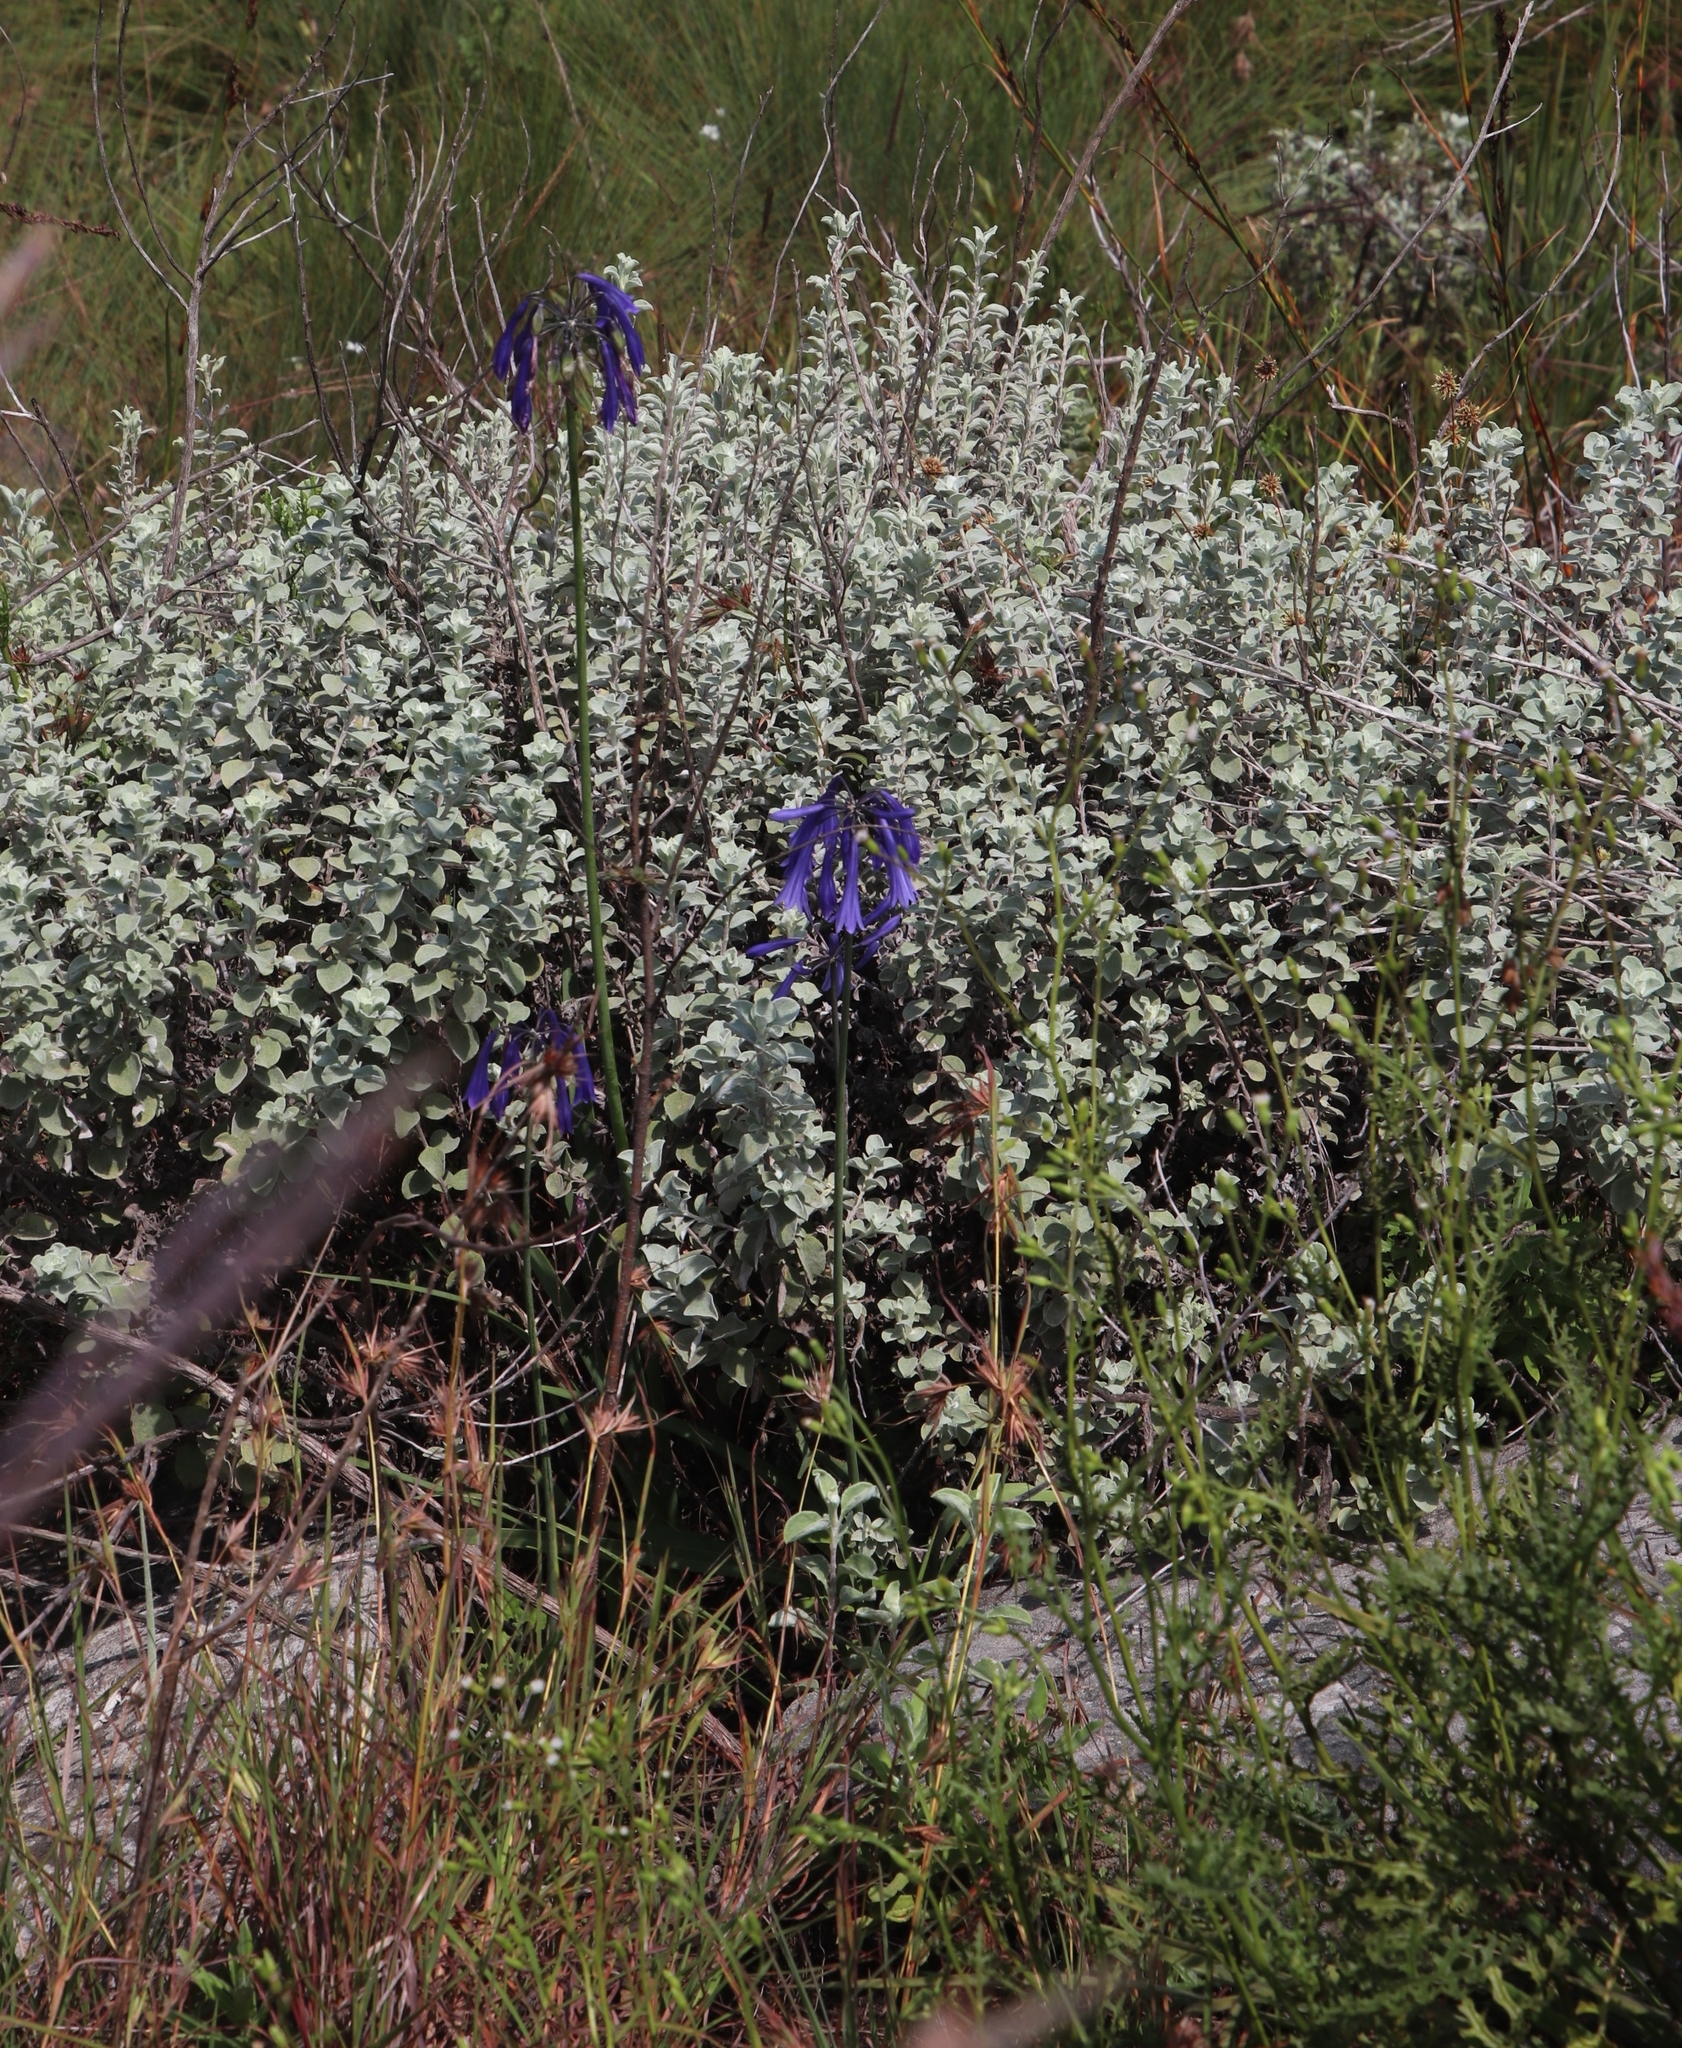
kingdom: Plantae
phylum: Tracheophyta
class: Liliopsida
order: Asparagales
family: Amaryllidaceae
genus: Agapanthus
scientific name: Agapanthus inapertus
